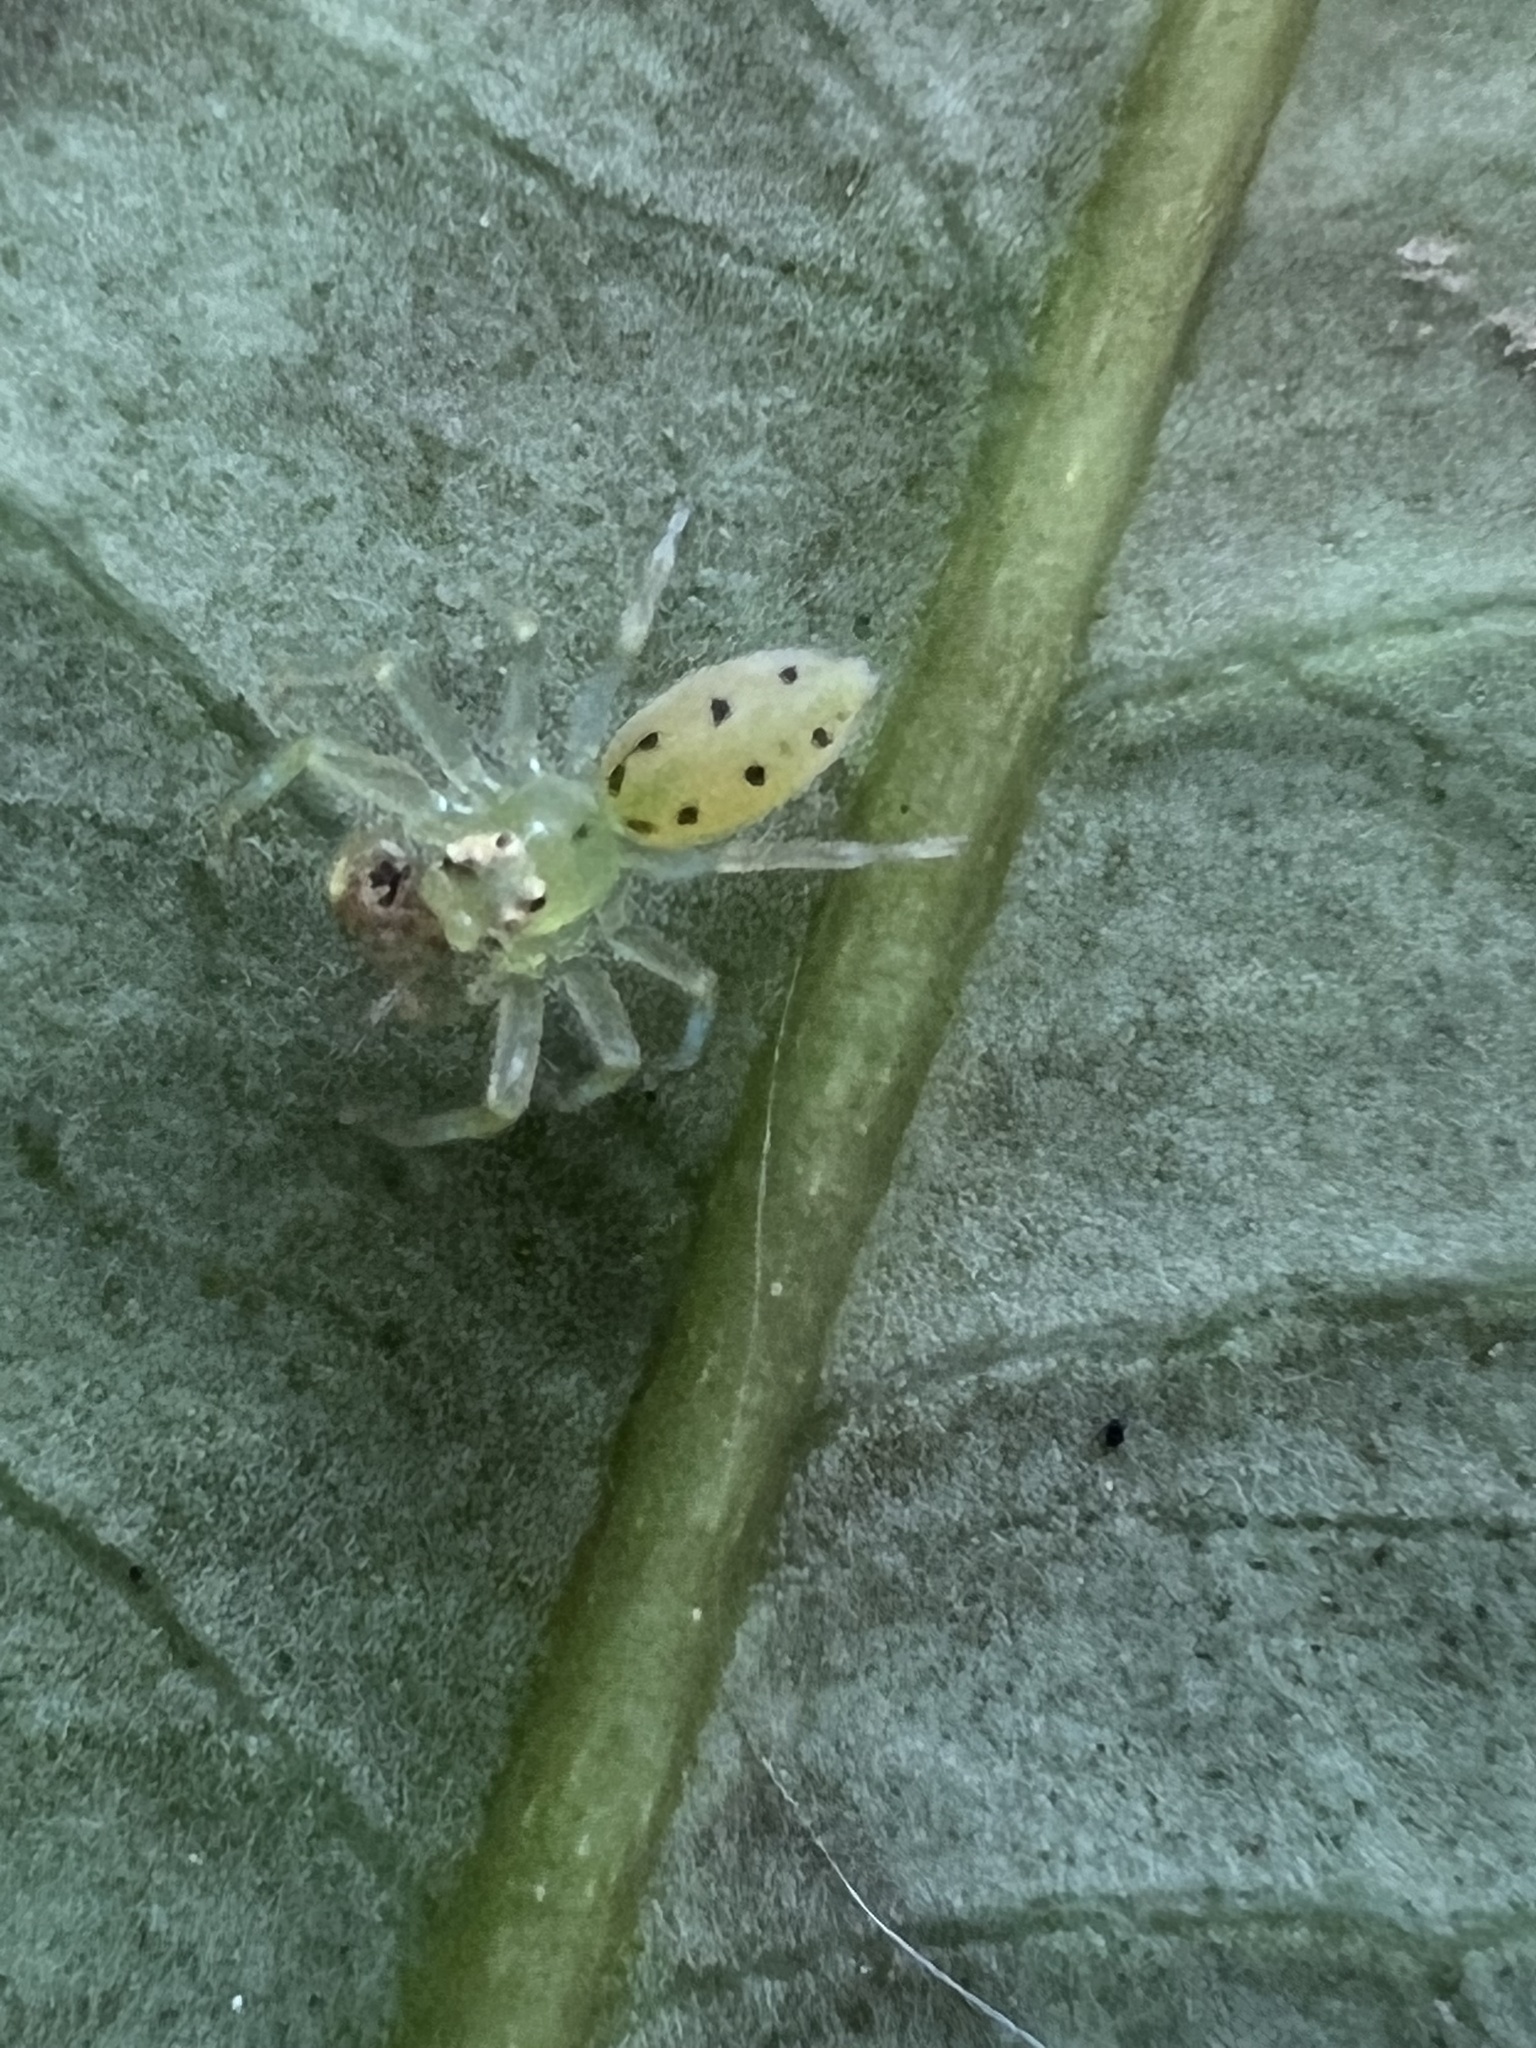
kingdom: Animalia
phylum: Arthropoda
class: Arachnida
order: Araneae
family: Salticidae
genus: Lyssomanes
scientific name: Lyssomanes viridis
